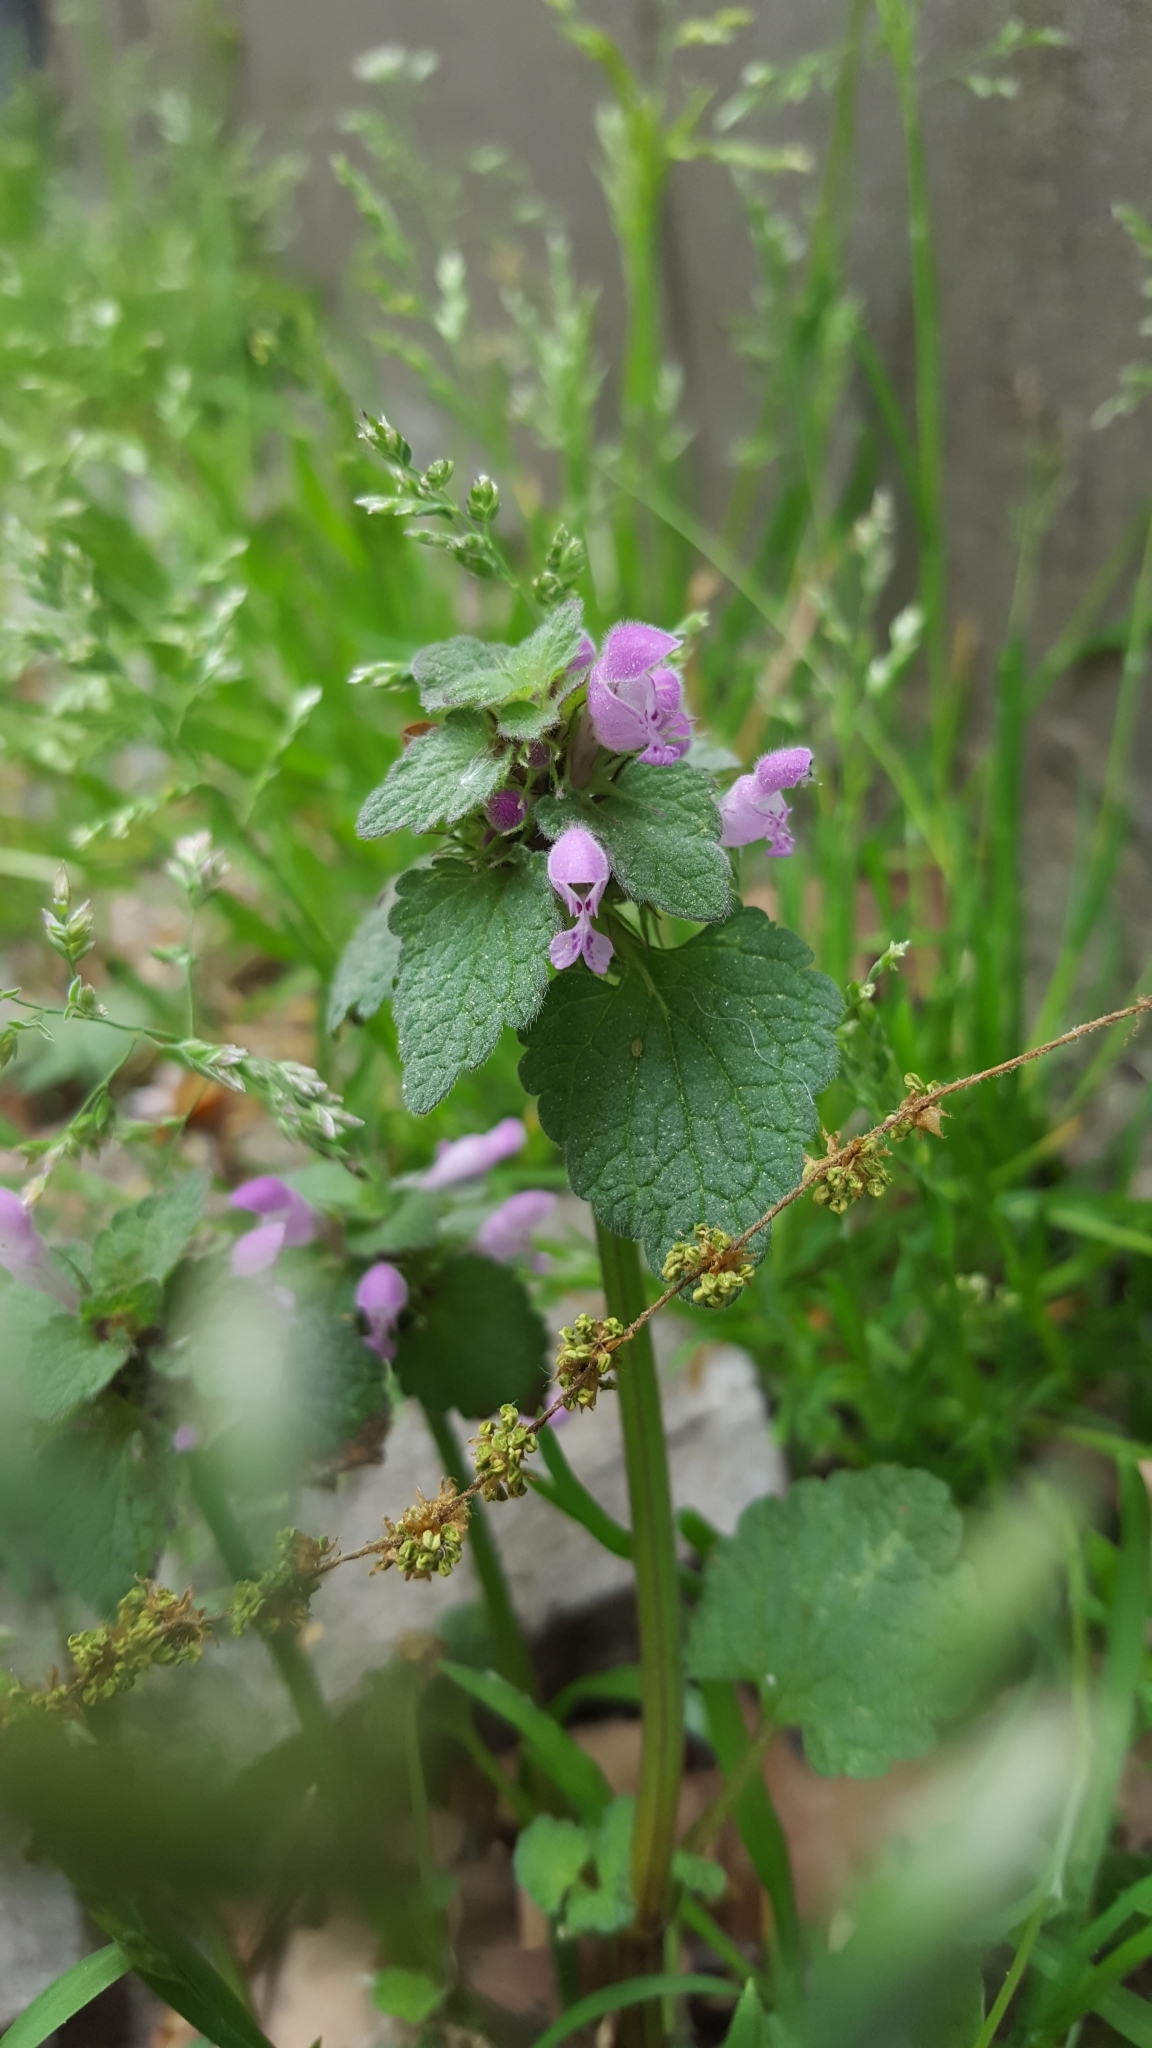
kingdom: Plantae
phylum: Tracheophyta
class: Magnoliopsida
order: Lamiales
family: Lamiaceae
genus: Lamium
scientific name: Lamium purpureum
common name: Red dead-nettle
